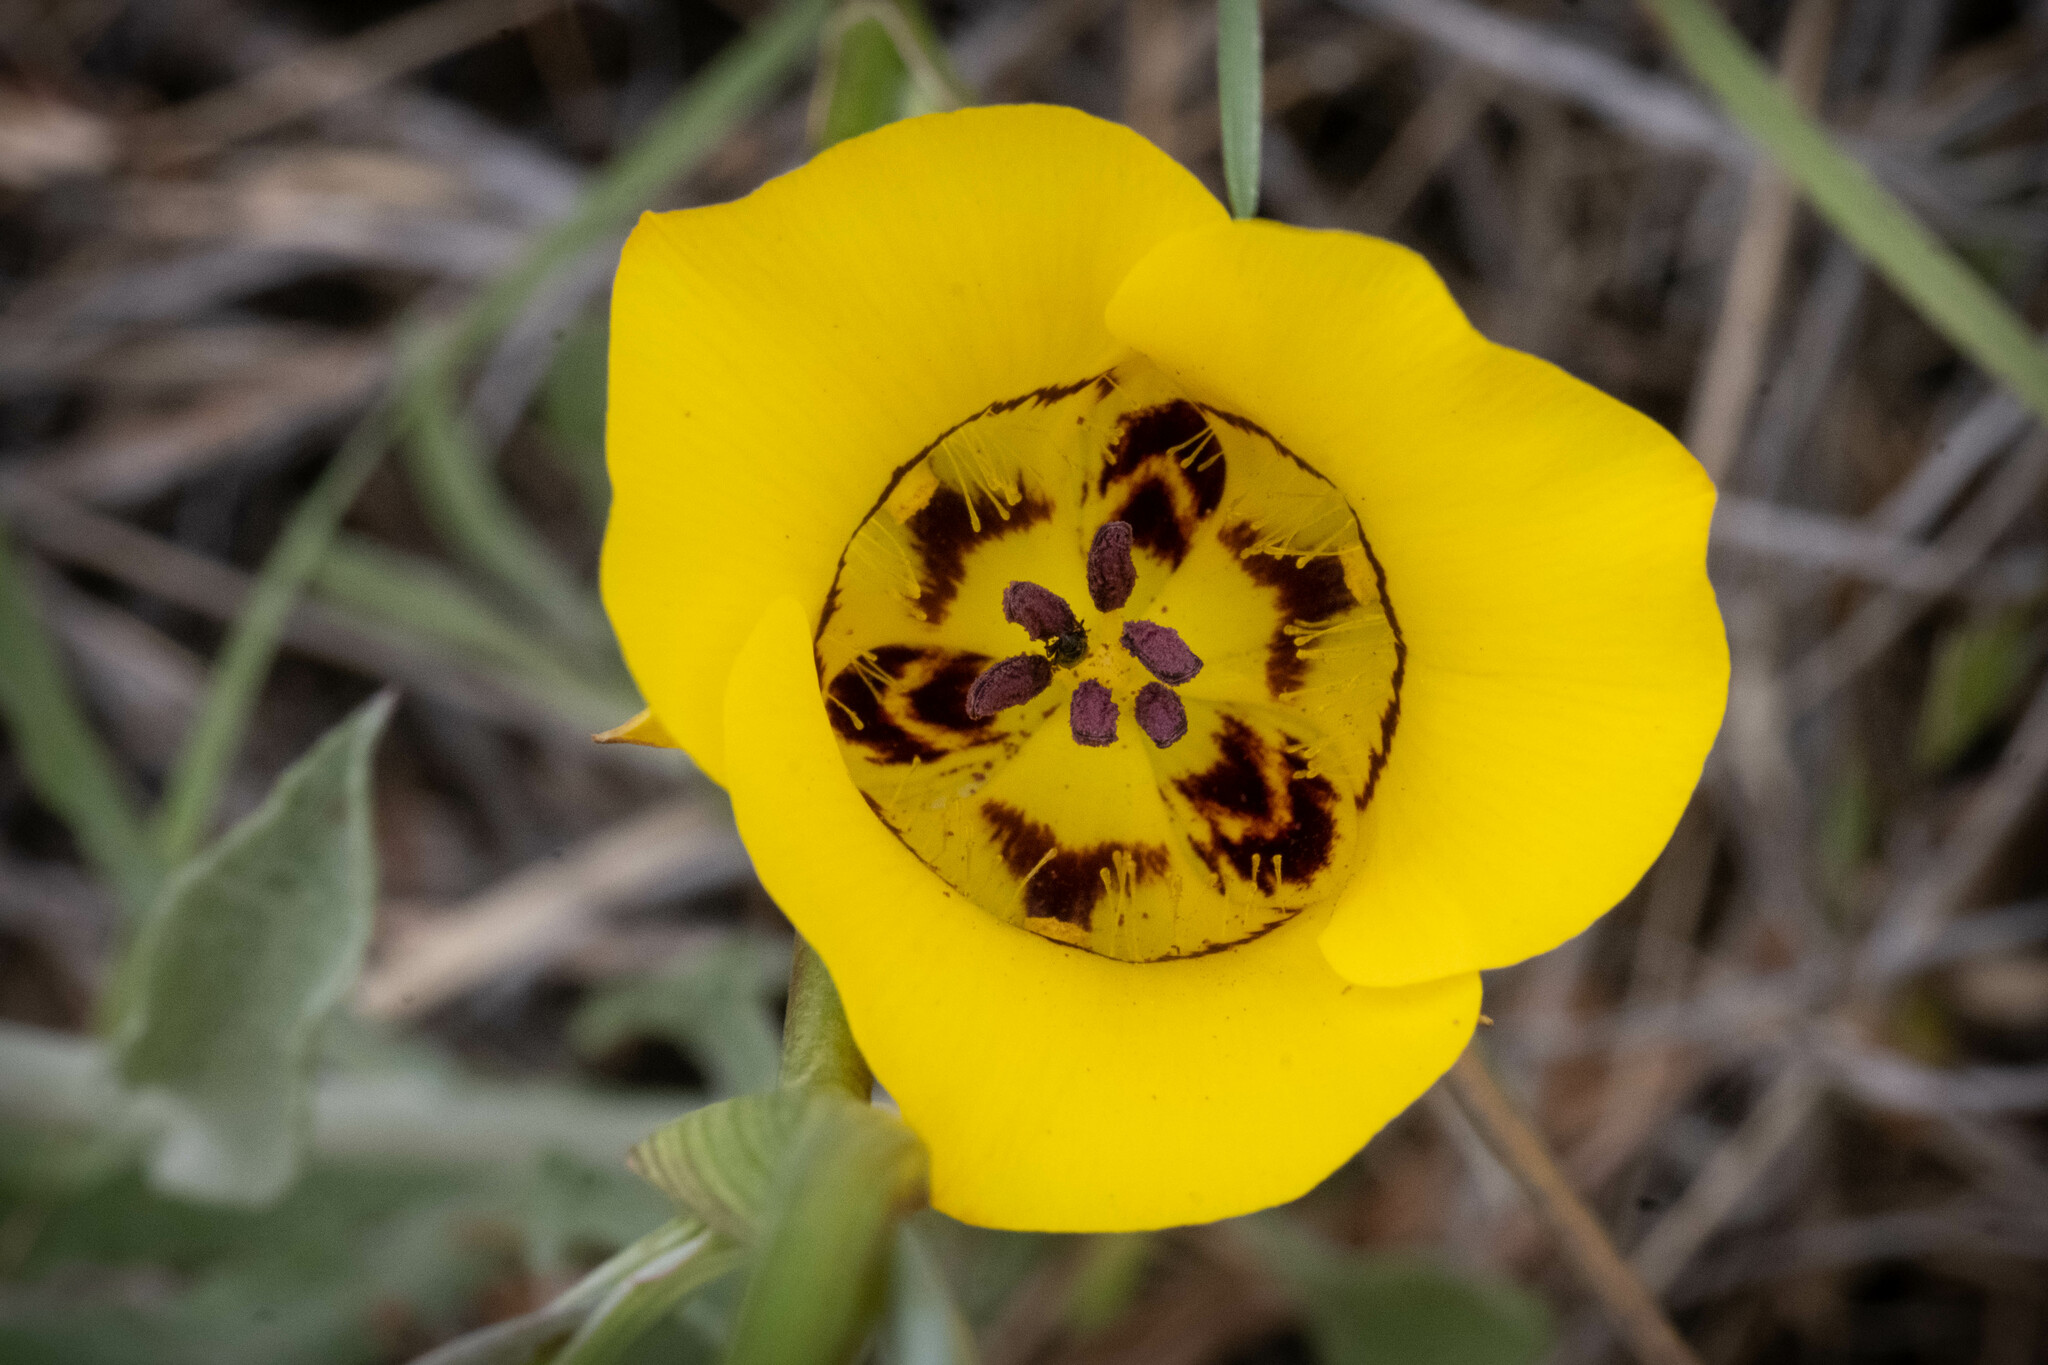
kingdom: Plantae
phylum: Tracheophyta
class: Liliopsida
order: Liliales
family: Liliaceae
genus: Calochortus
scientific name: Calochortus clavatus
